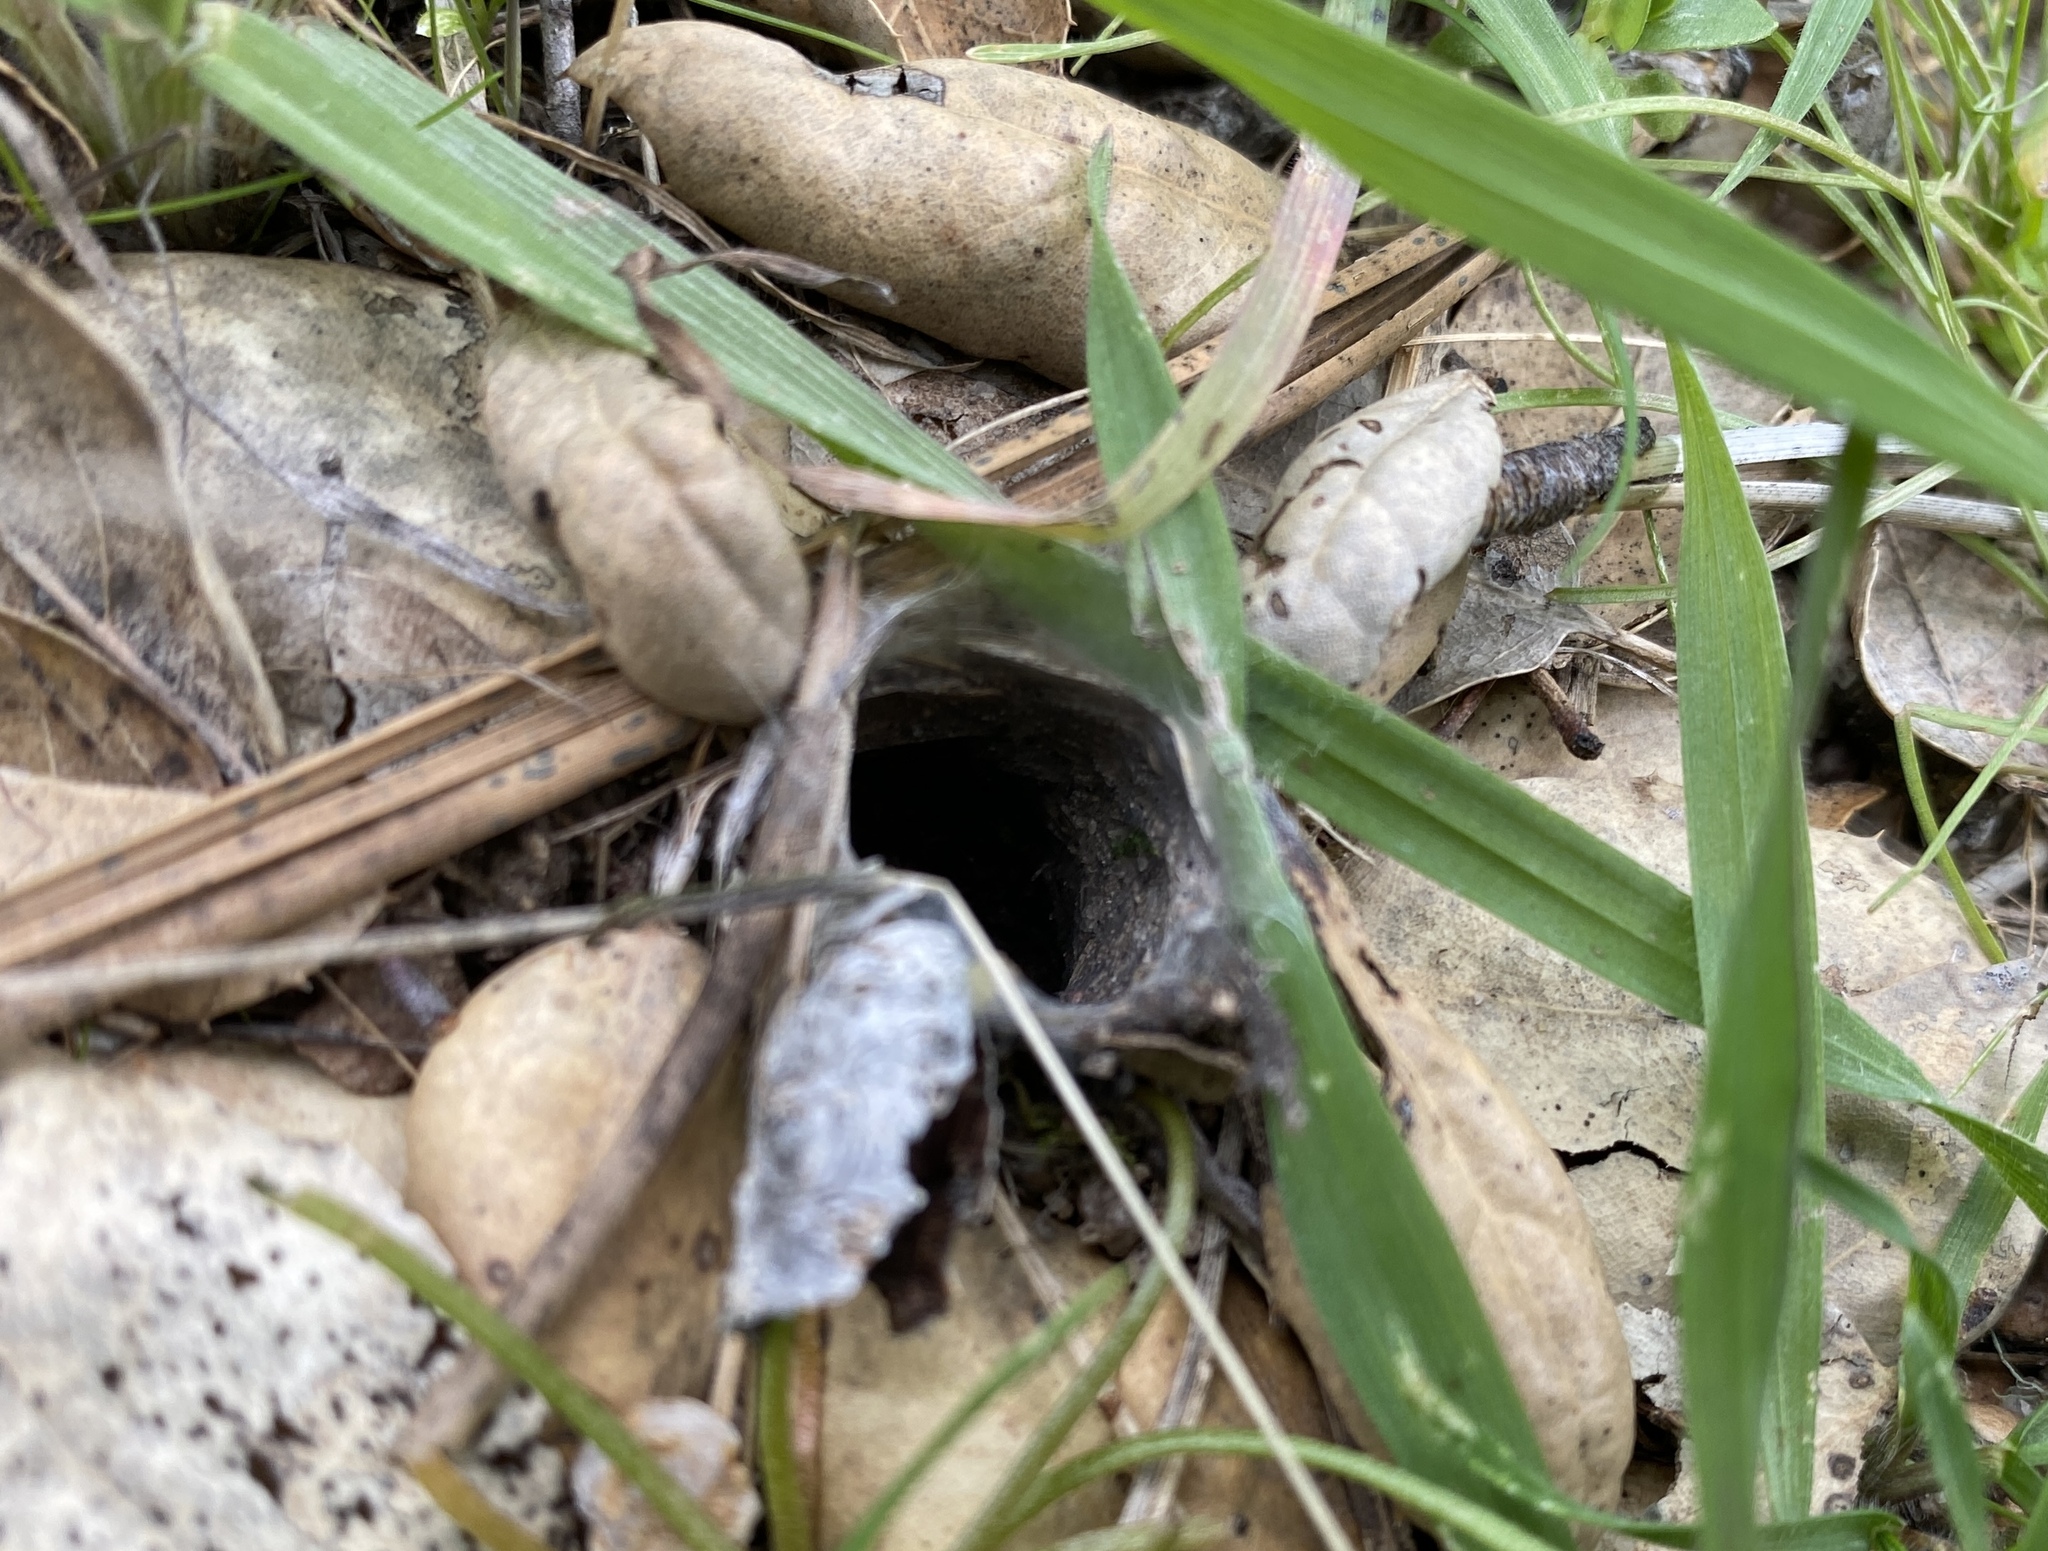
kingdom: Animalia
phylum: Arthropoda
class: Arachnida
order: Araneae
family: Antrodiaetidae
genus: Atypoides
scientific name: Atypoides riversi
